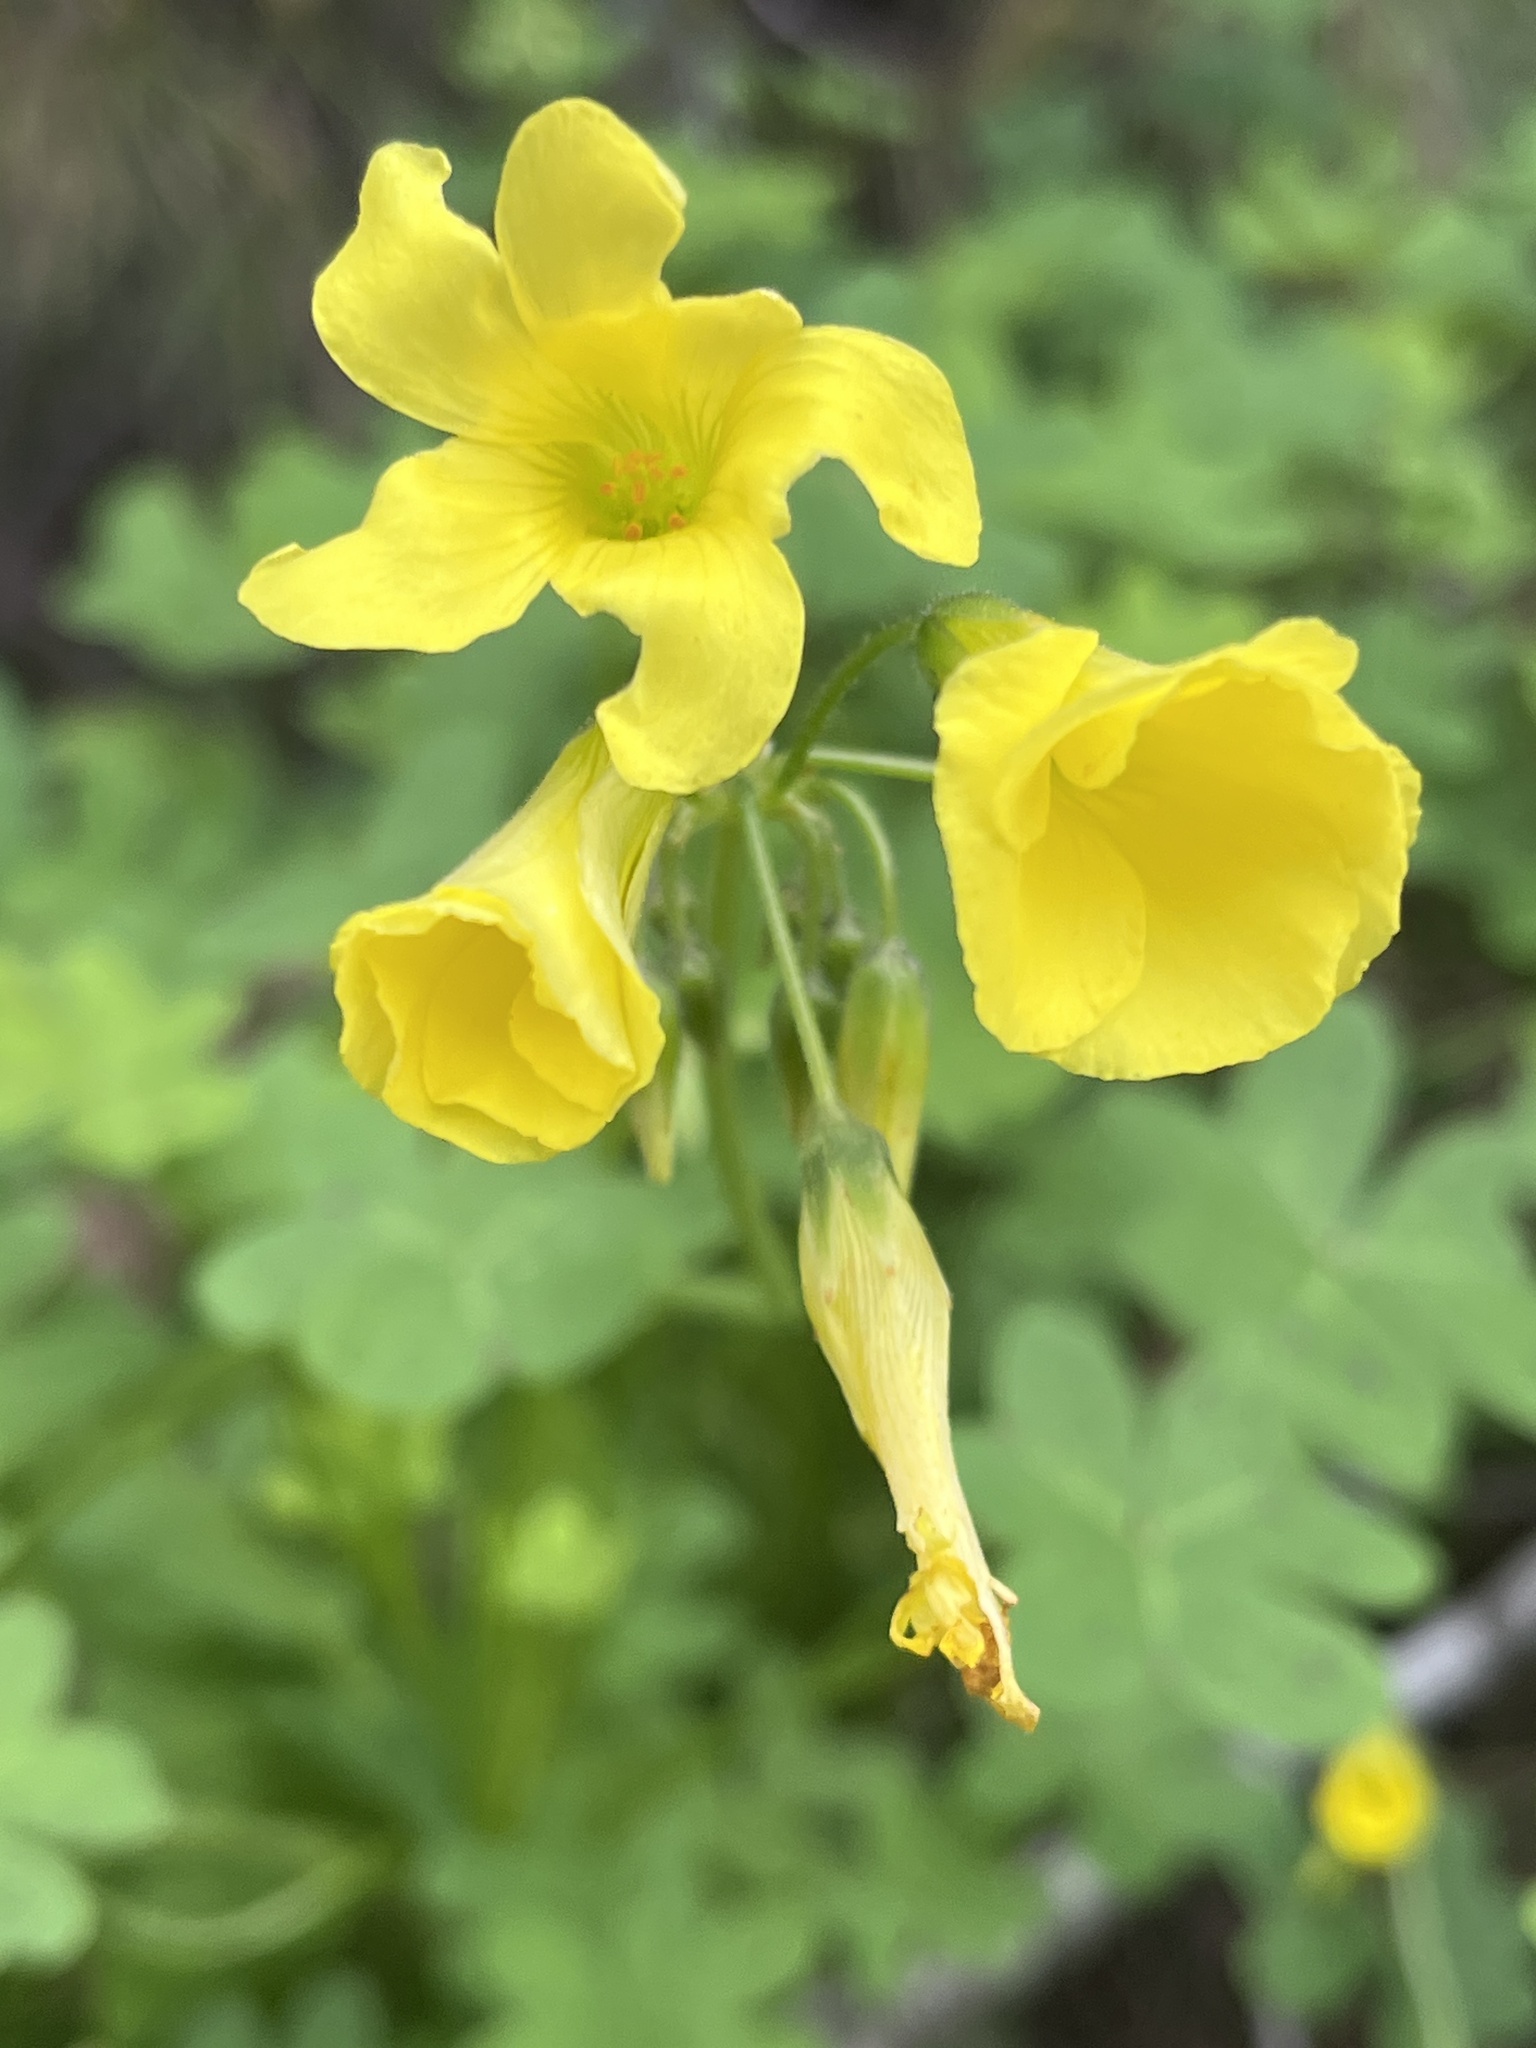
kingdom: Plantae
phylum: Tracheophyta
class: Magnoliopsida
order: Oxalidales
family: Oxalidaceae
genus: Oxalis
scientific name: Oxalis pes-caprae
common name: Bermuda-buttercup
